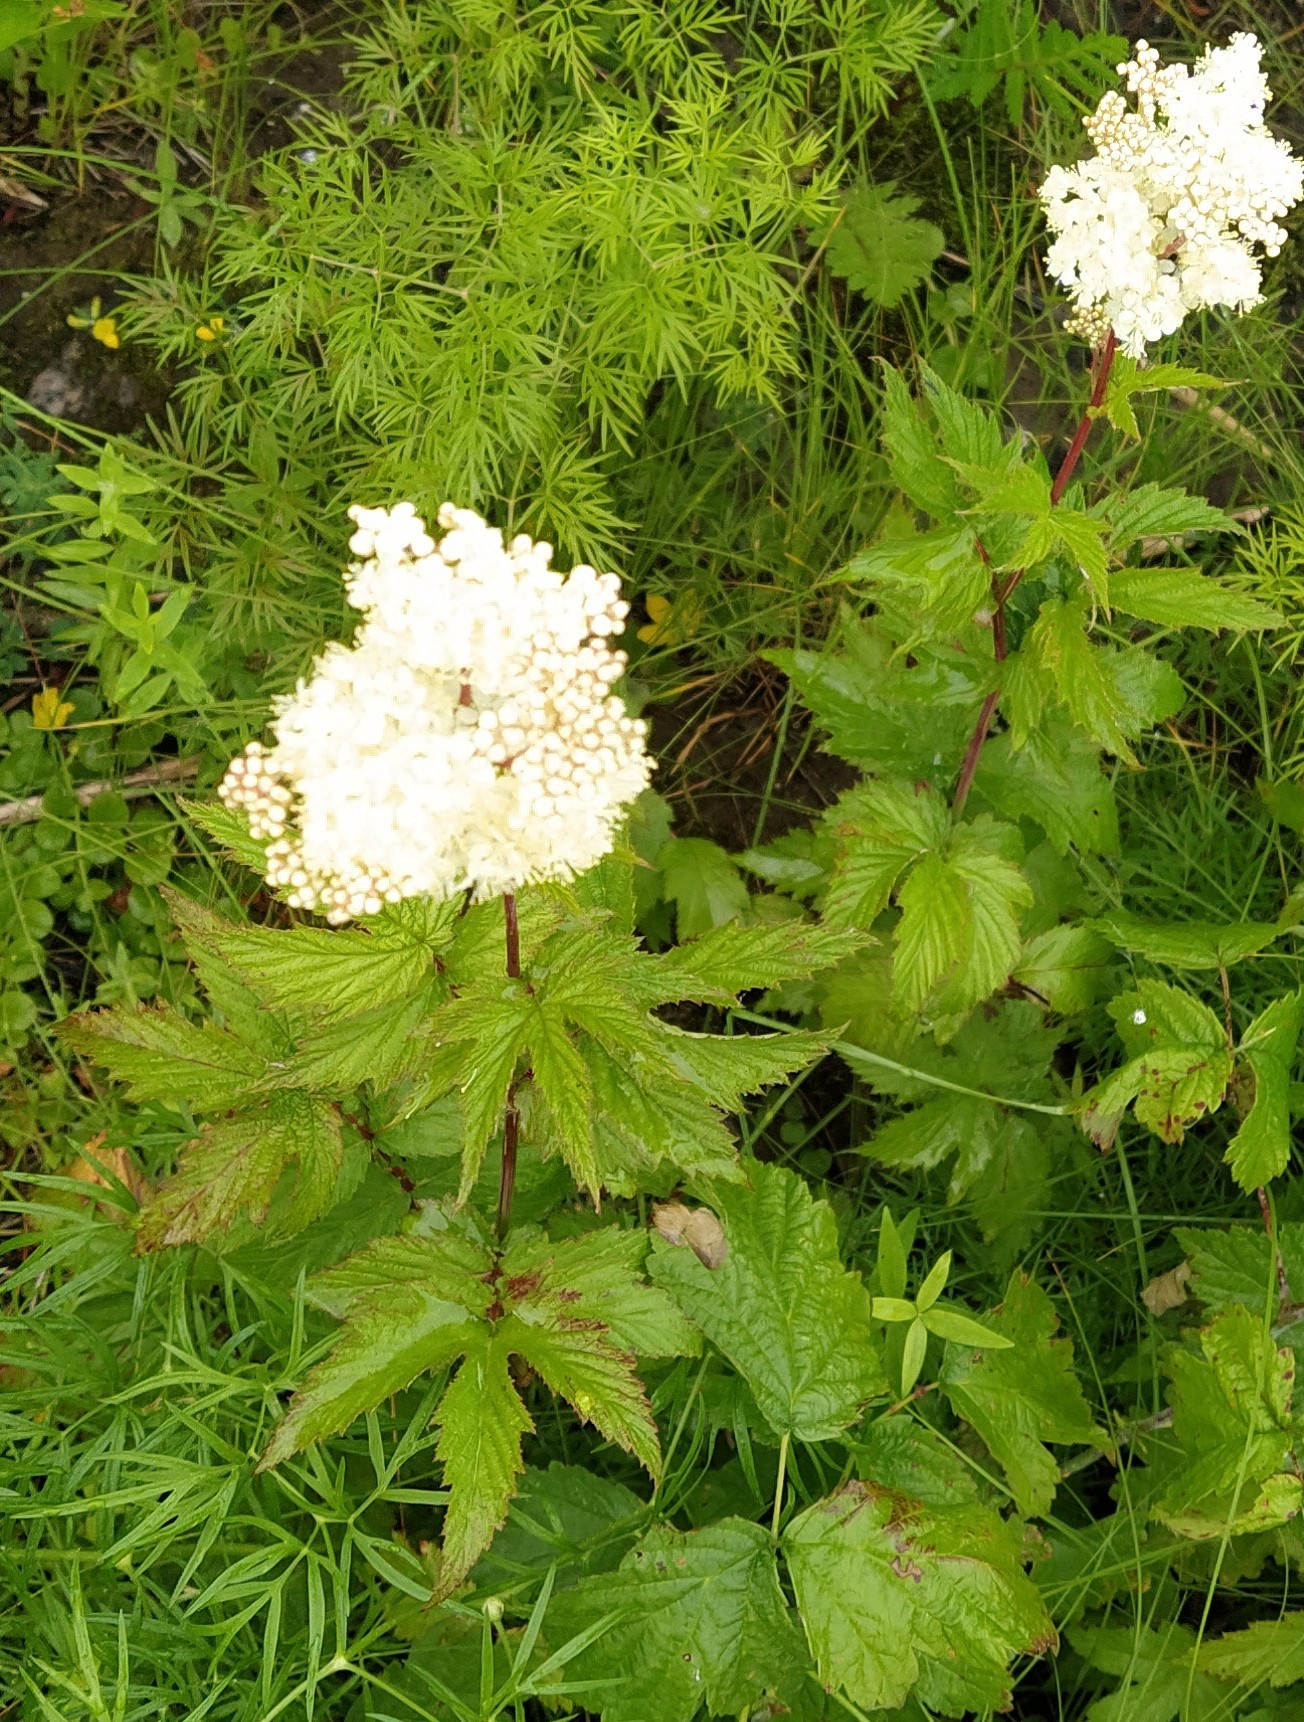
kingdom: Plantae
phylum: Tracheophyta
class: Magnoliopsida
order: Rosales
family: Rosaceae
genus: Filipendula
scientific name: Filipendula ulmaria
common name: Meadowsweet
